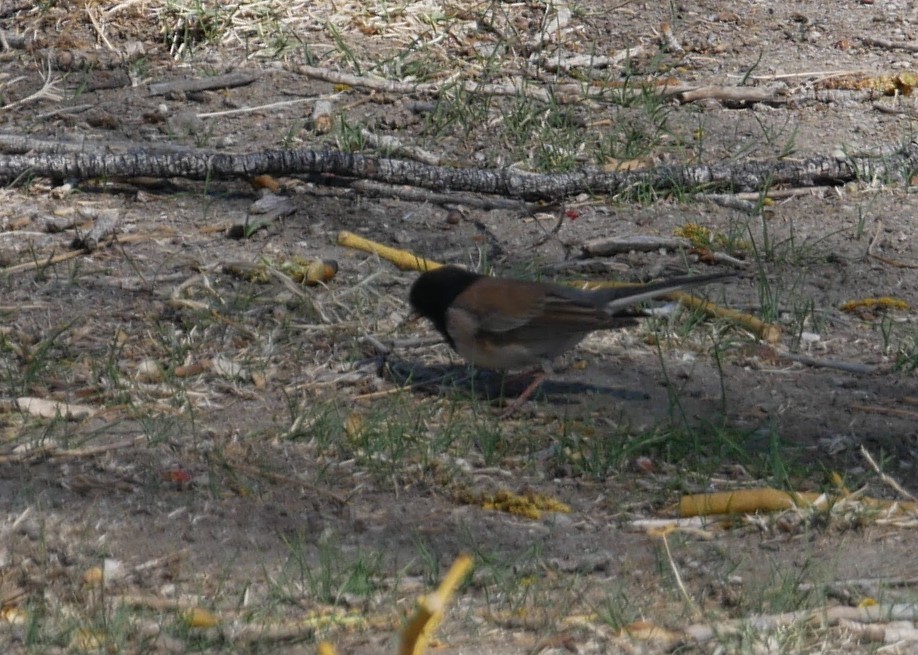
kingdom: Animalia
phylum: Chordata
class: Aves
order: Passeriformes
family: Passerellidae
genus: Junco
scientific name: Junco hyemalis
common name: Dark-eyed junco
